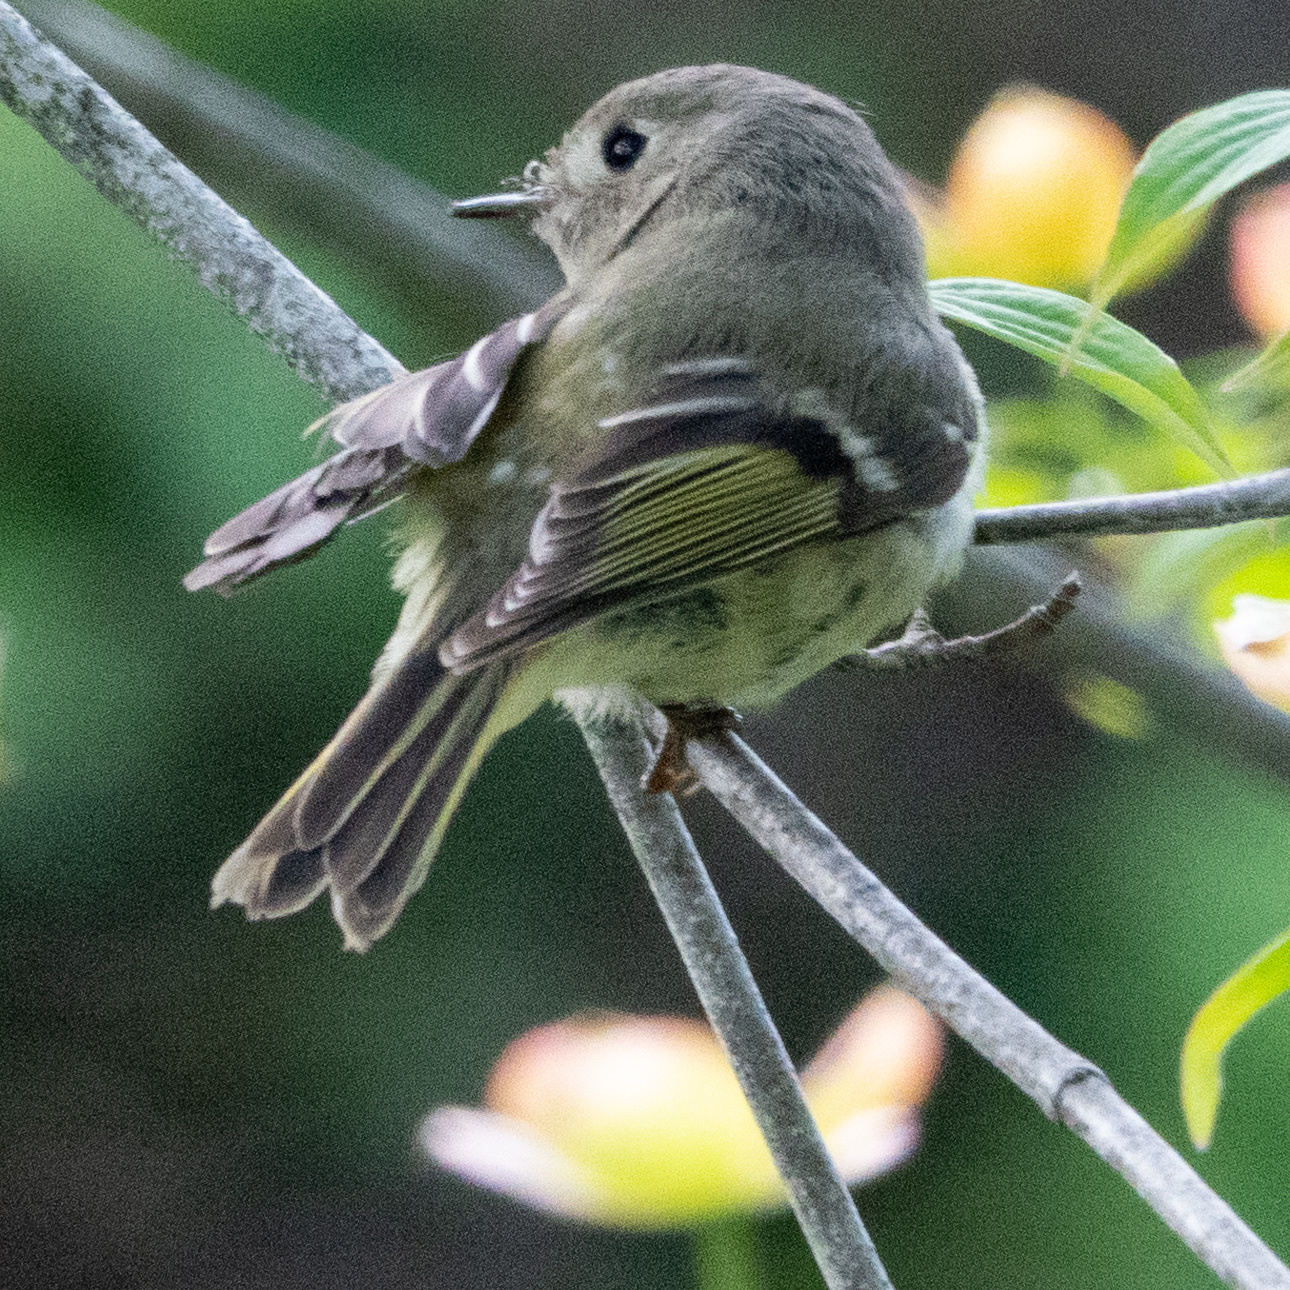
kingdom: Animalia
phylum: Chordata
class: Aves
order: Passeriformes
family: Regulidae
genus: Regulus
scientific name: Regulus calendula
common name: Ruby-crowned kinglet
